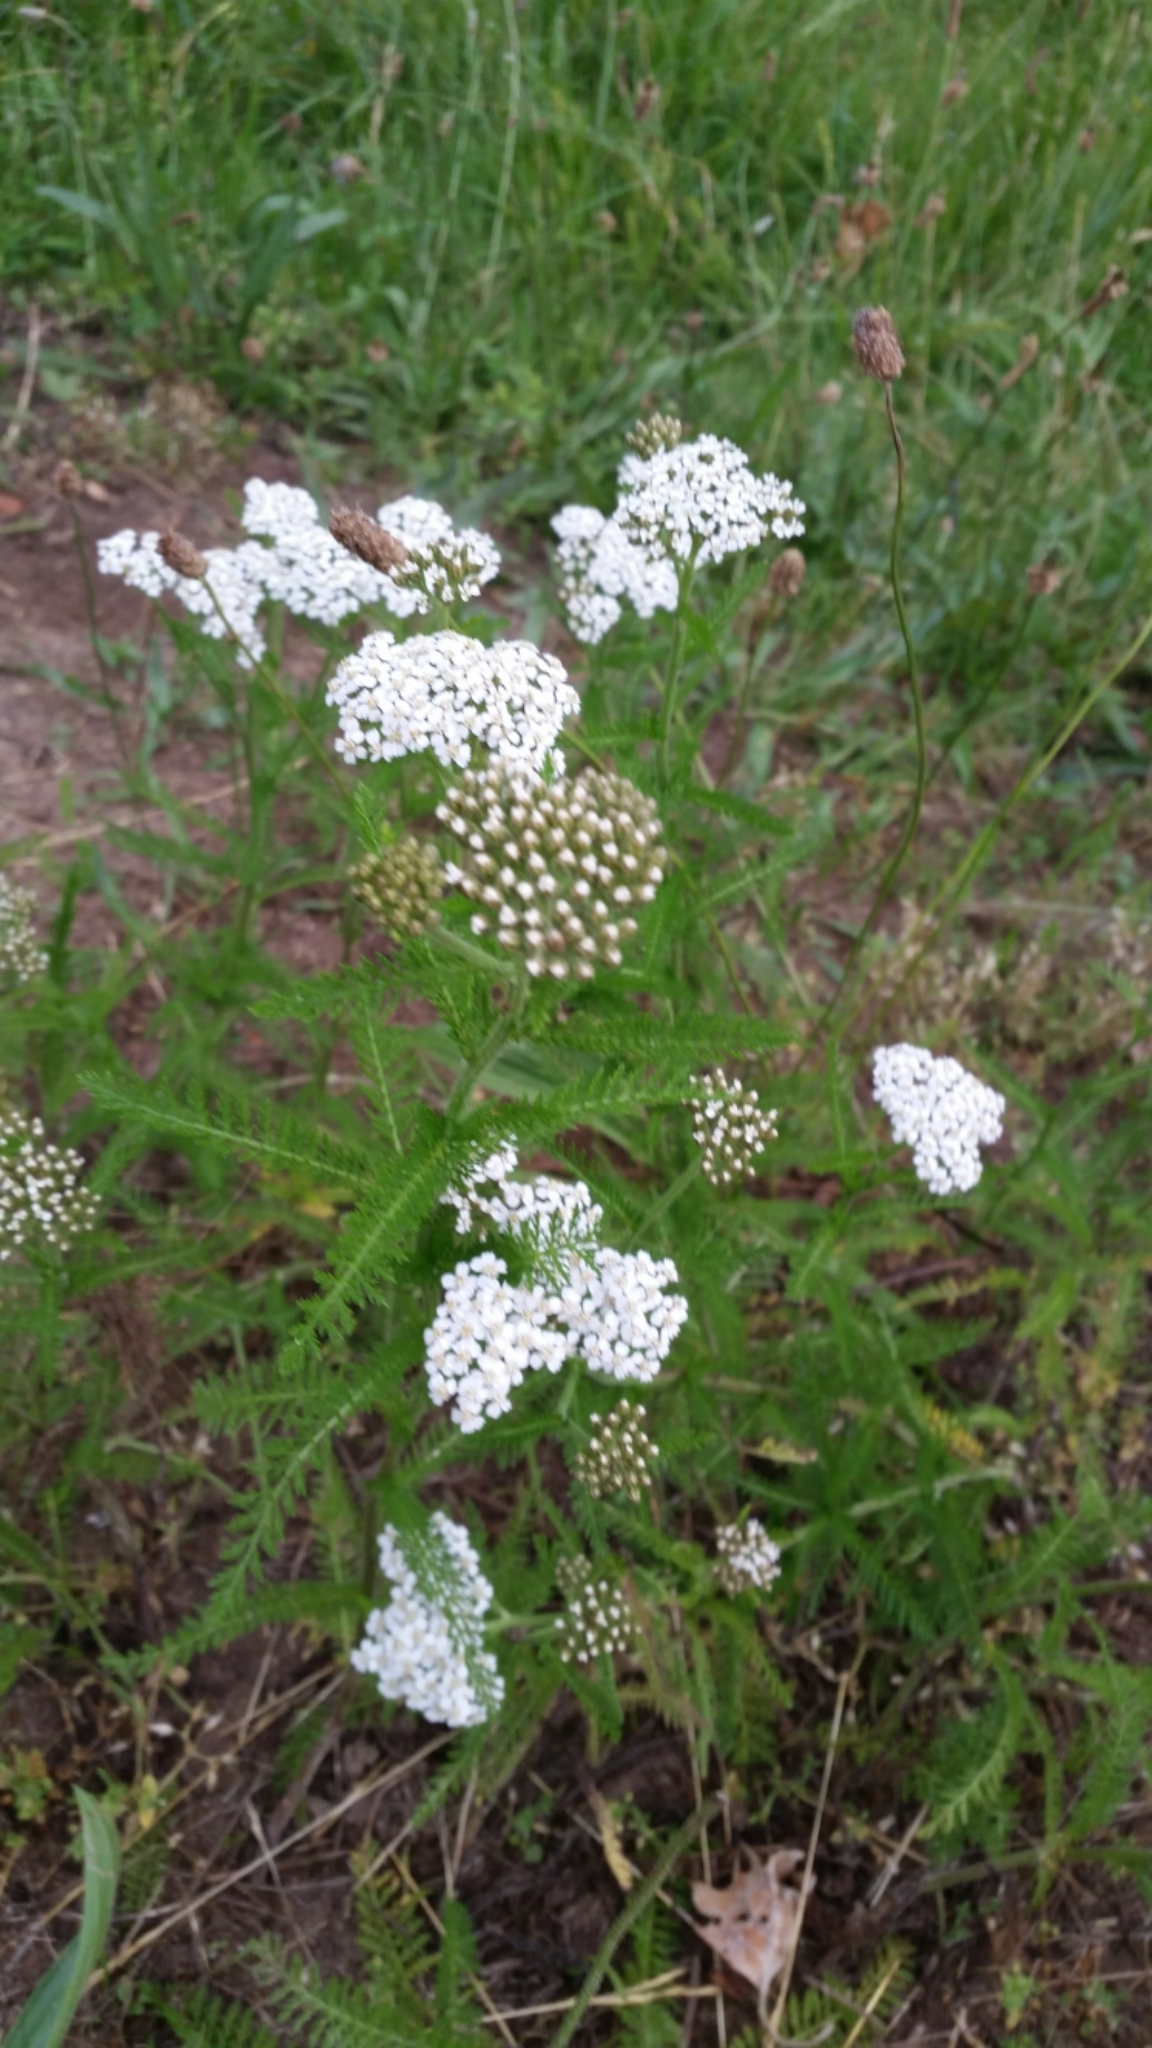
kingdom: Plantae
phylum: Tracheophyta
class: Magnoliopsida
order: Asterales
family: Asteraceae
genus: Achillea
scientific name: Achillea millefolium
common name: Yarrow
